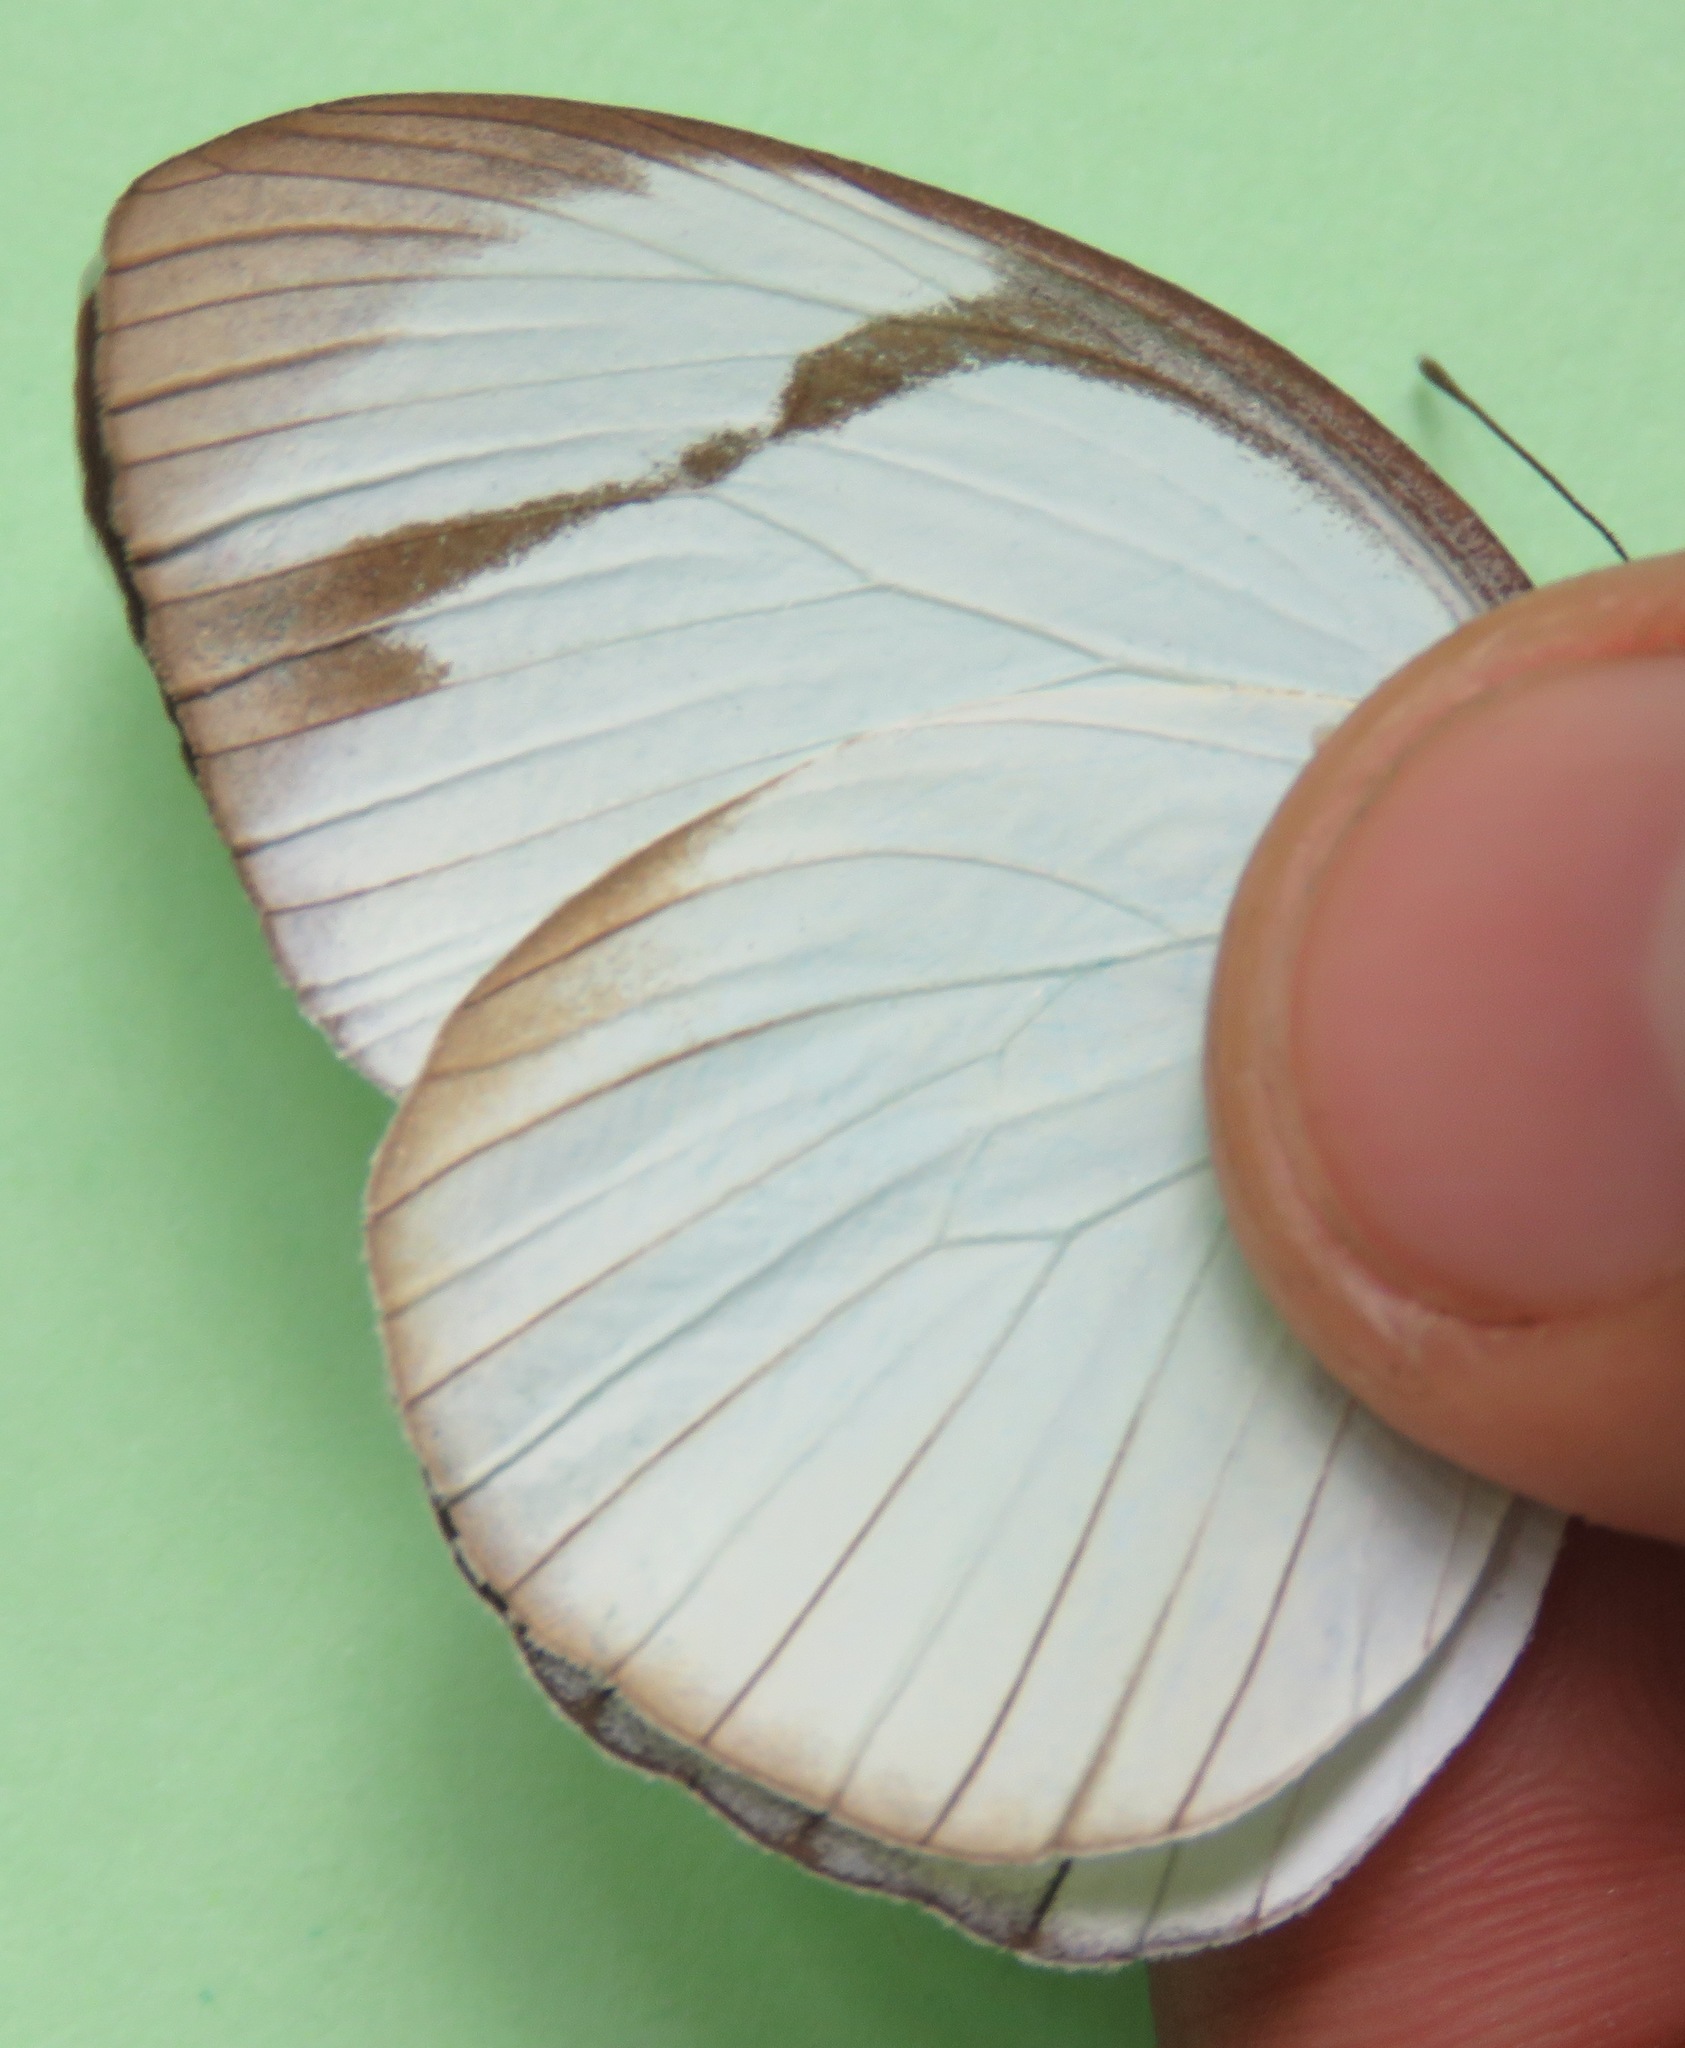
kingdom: Animalia
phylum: Arthropoda
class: Insecta
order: Lepidoptera
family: Pieridae
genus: Itaballia
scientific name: Itaballia demophile
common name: Cross-barred white
